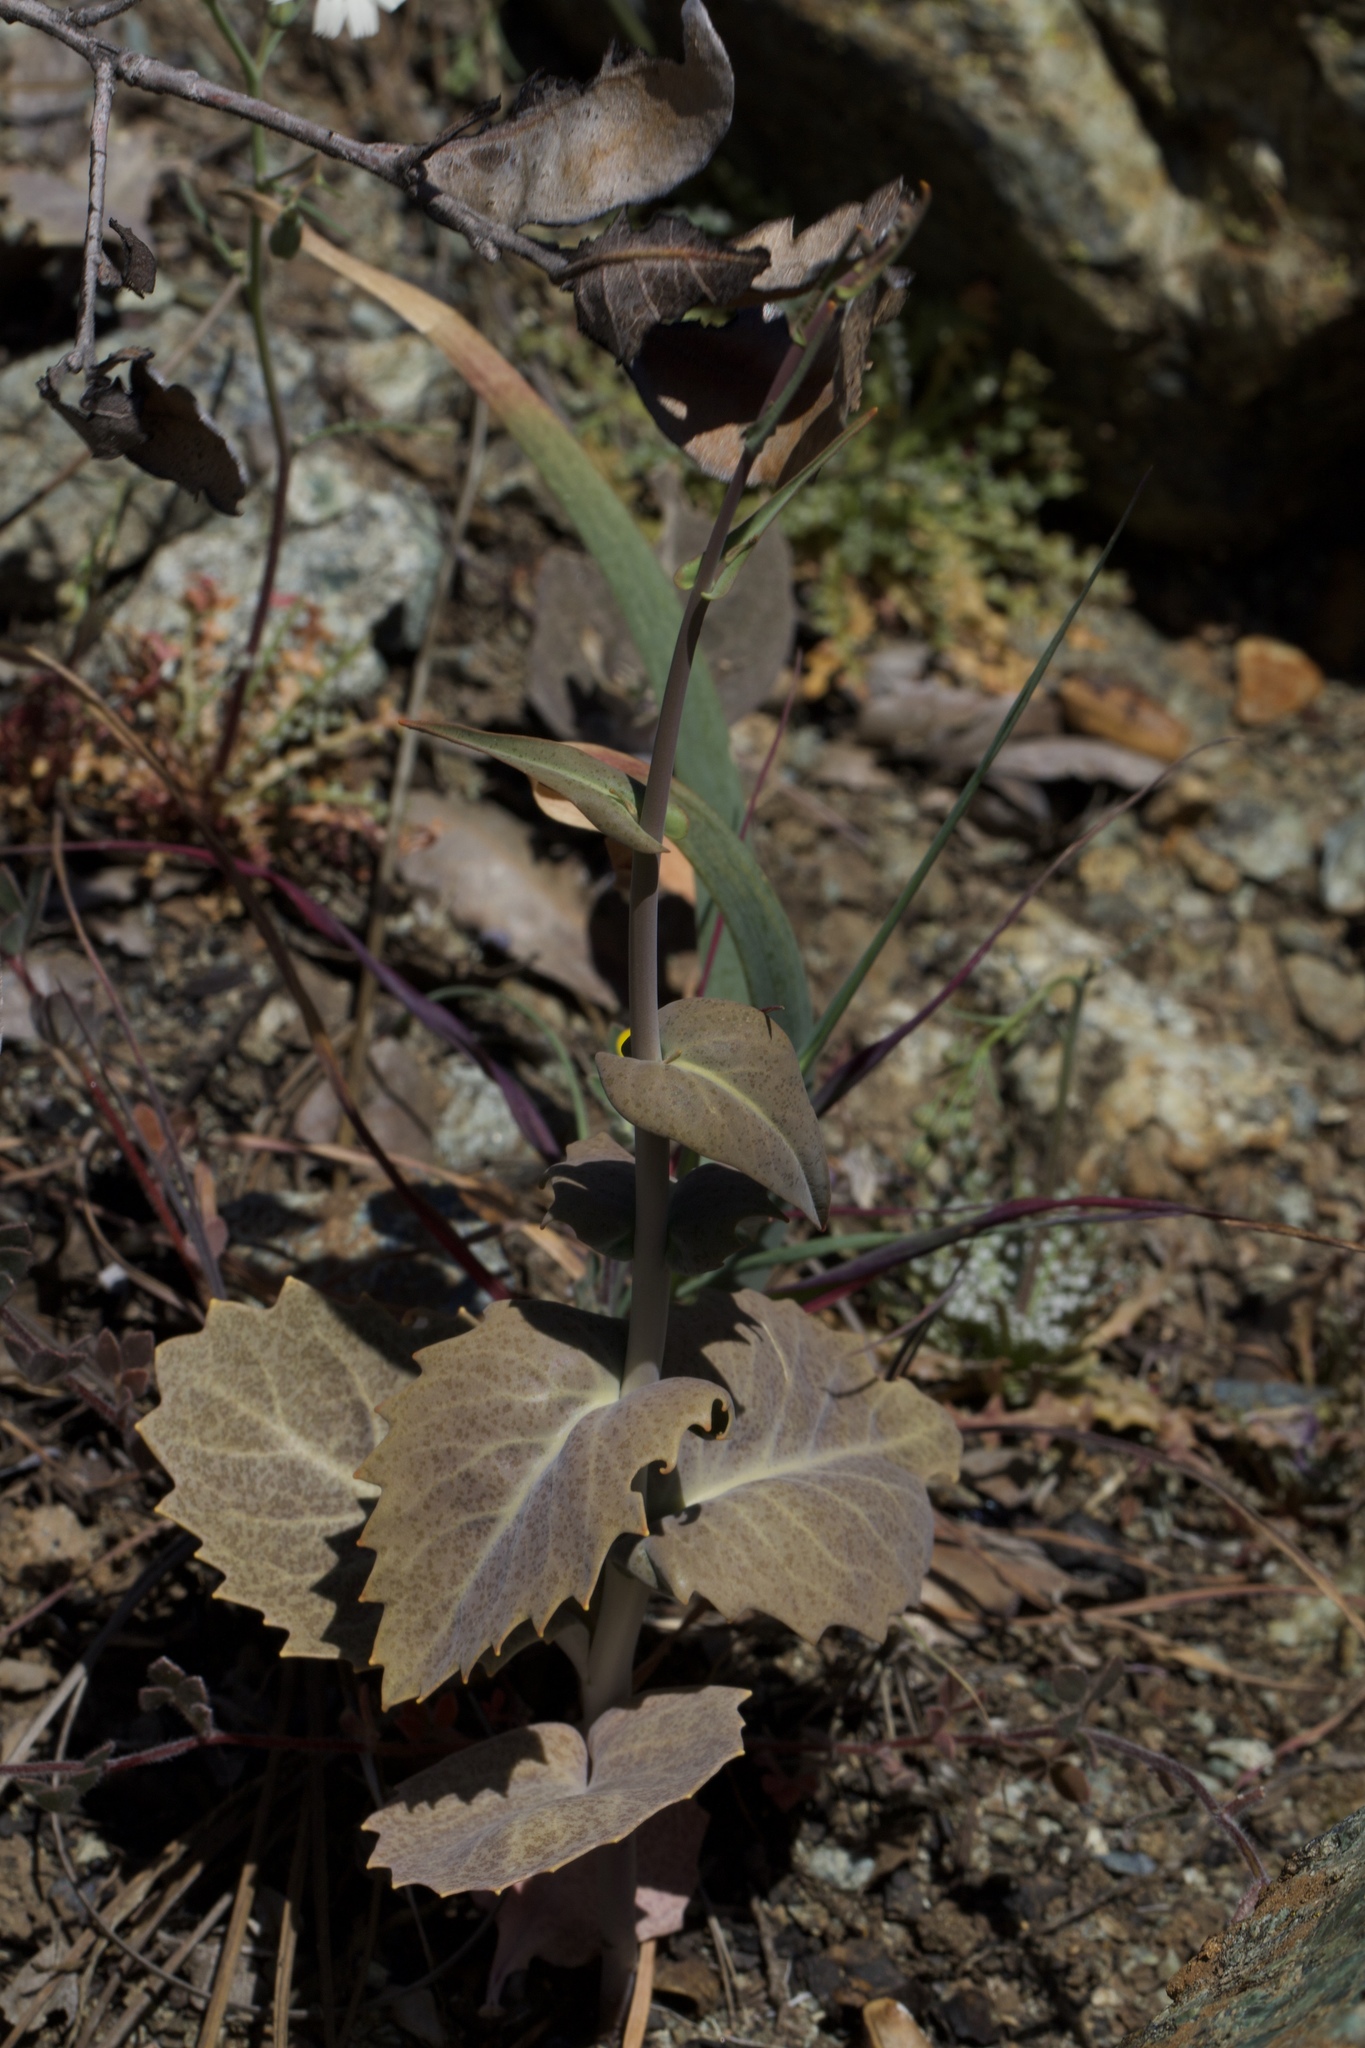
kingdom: Plantae
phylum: Tracheophyta
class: Magnoliopsida
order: Brassicales
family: Brassicaceae
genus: Streptanthus
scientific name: Streptanthus breweri
